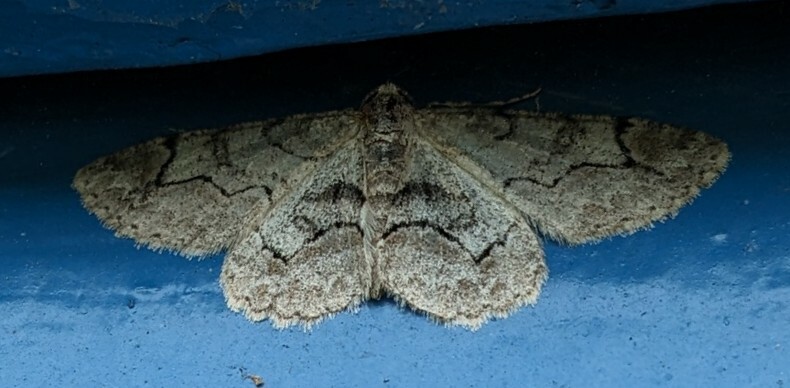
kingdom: Animalia
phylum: Arthropoda
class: Insecta
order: Lepidoptera
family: Geometridae
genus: Iridopsis
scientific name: Iridopsis larvaria
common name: Bent-line gray
